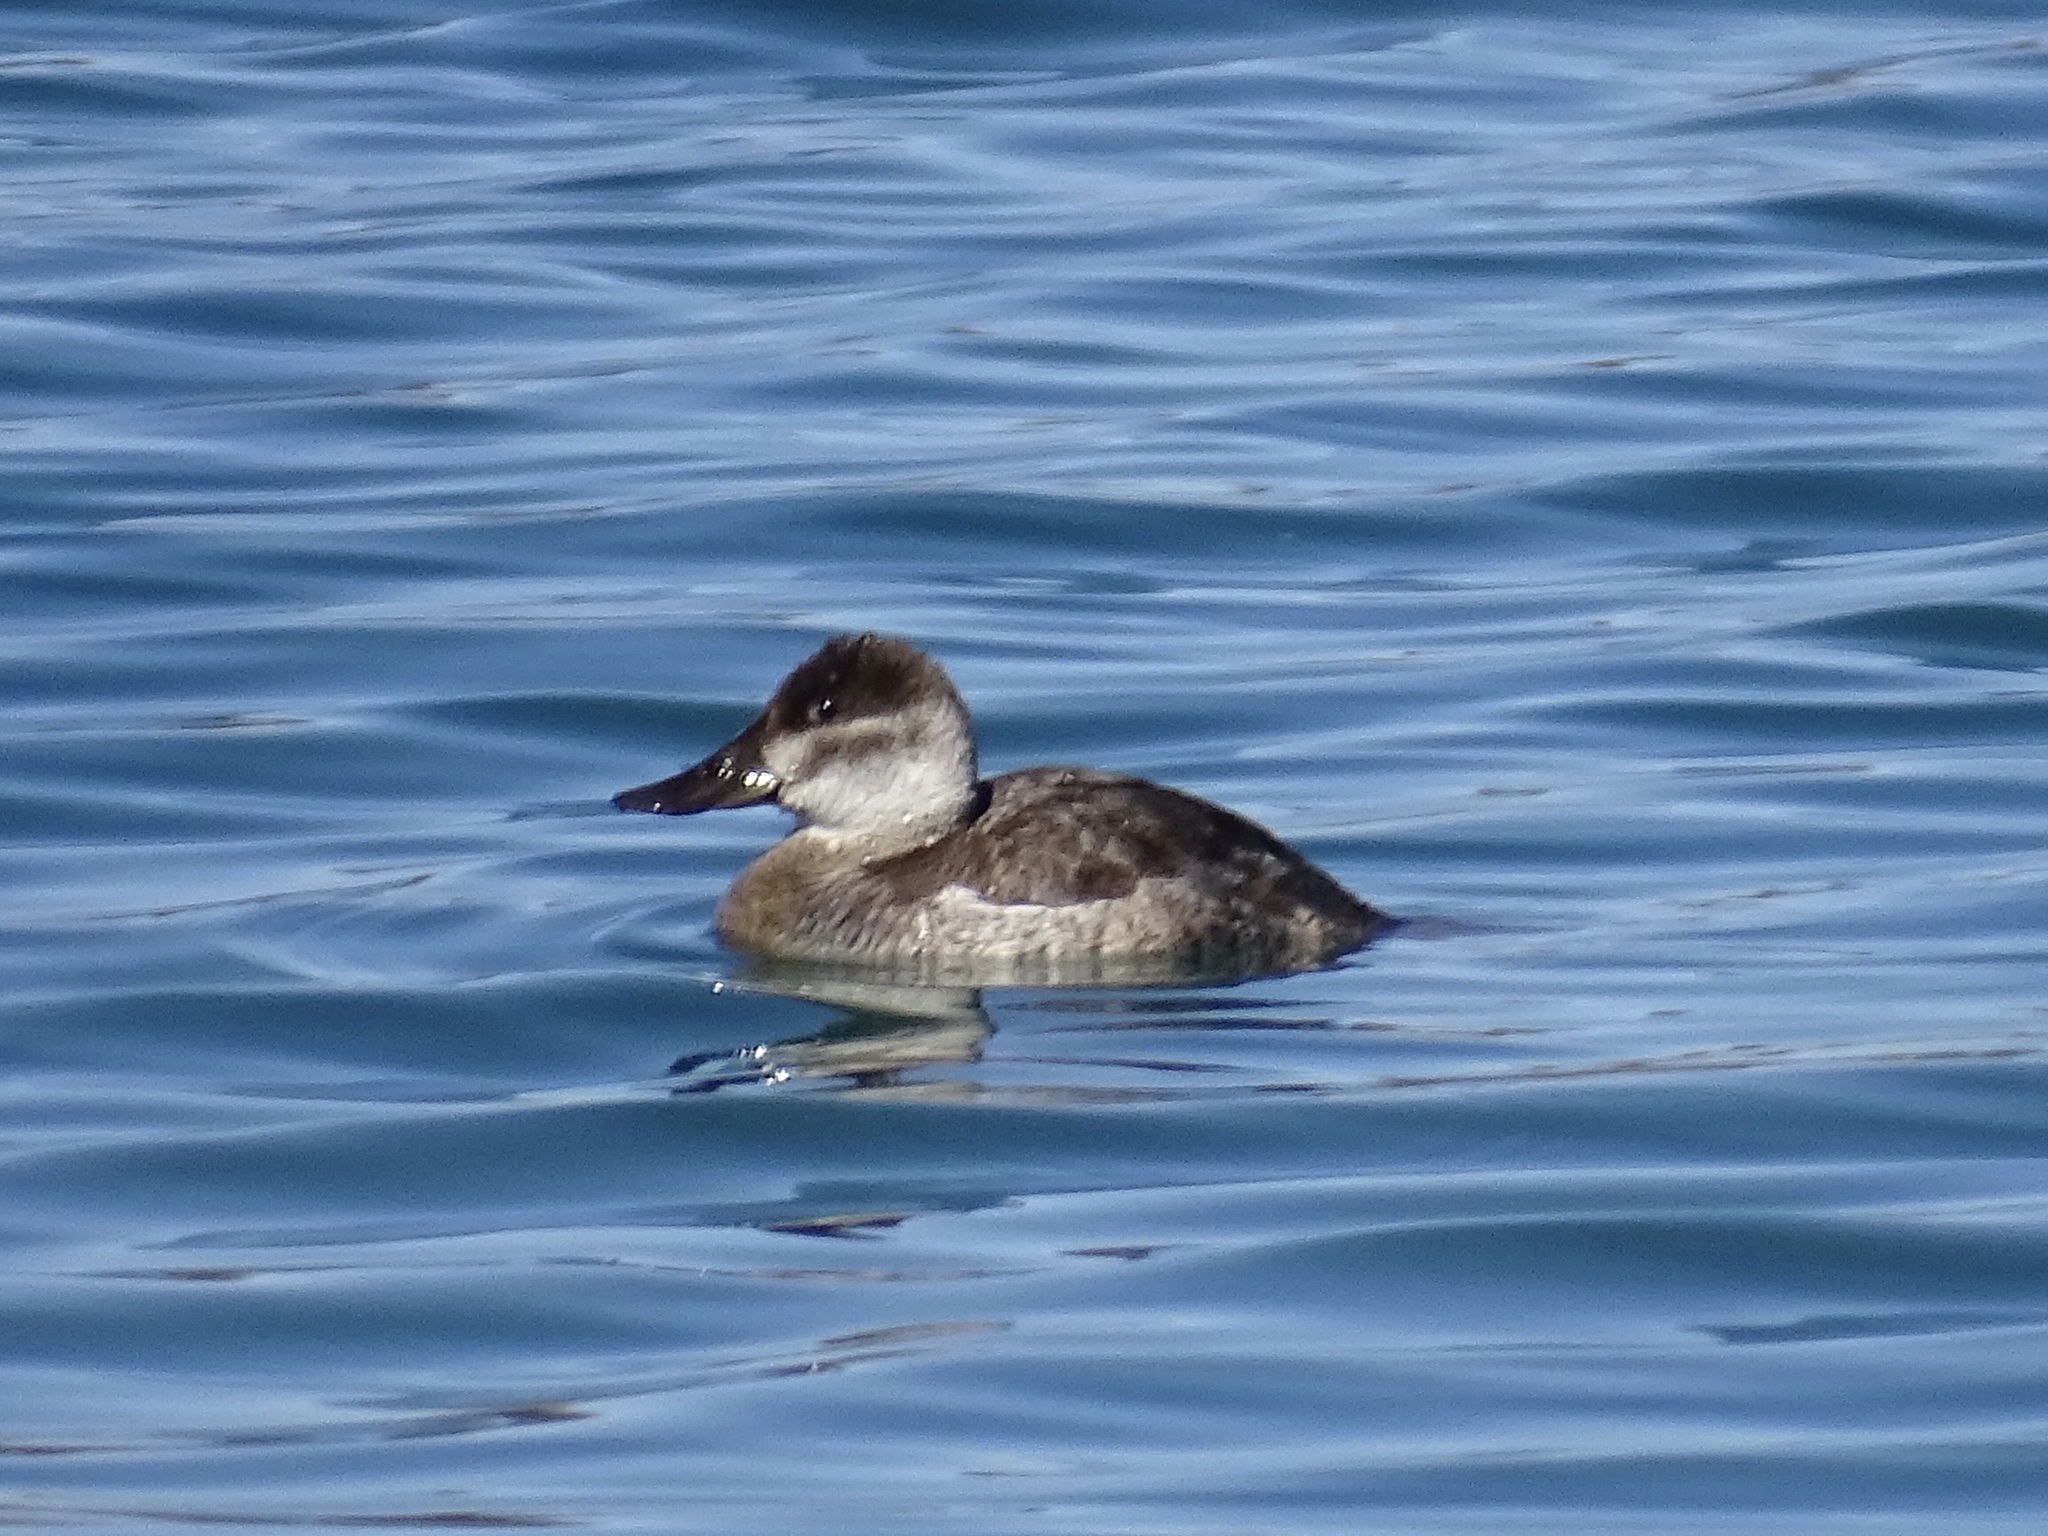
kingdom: Animalia
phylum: Chordata
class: Aves
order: Anseriformes
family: Anatidae
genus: Oxyura
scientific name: Oxyura jamaicensis
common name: Ruddy duck
